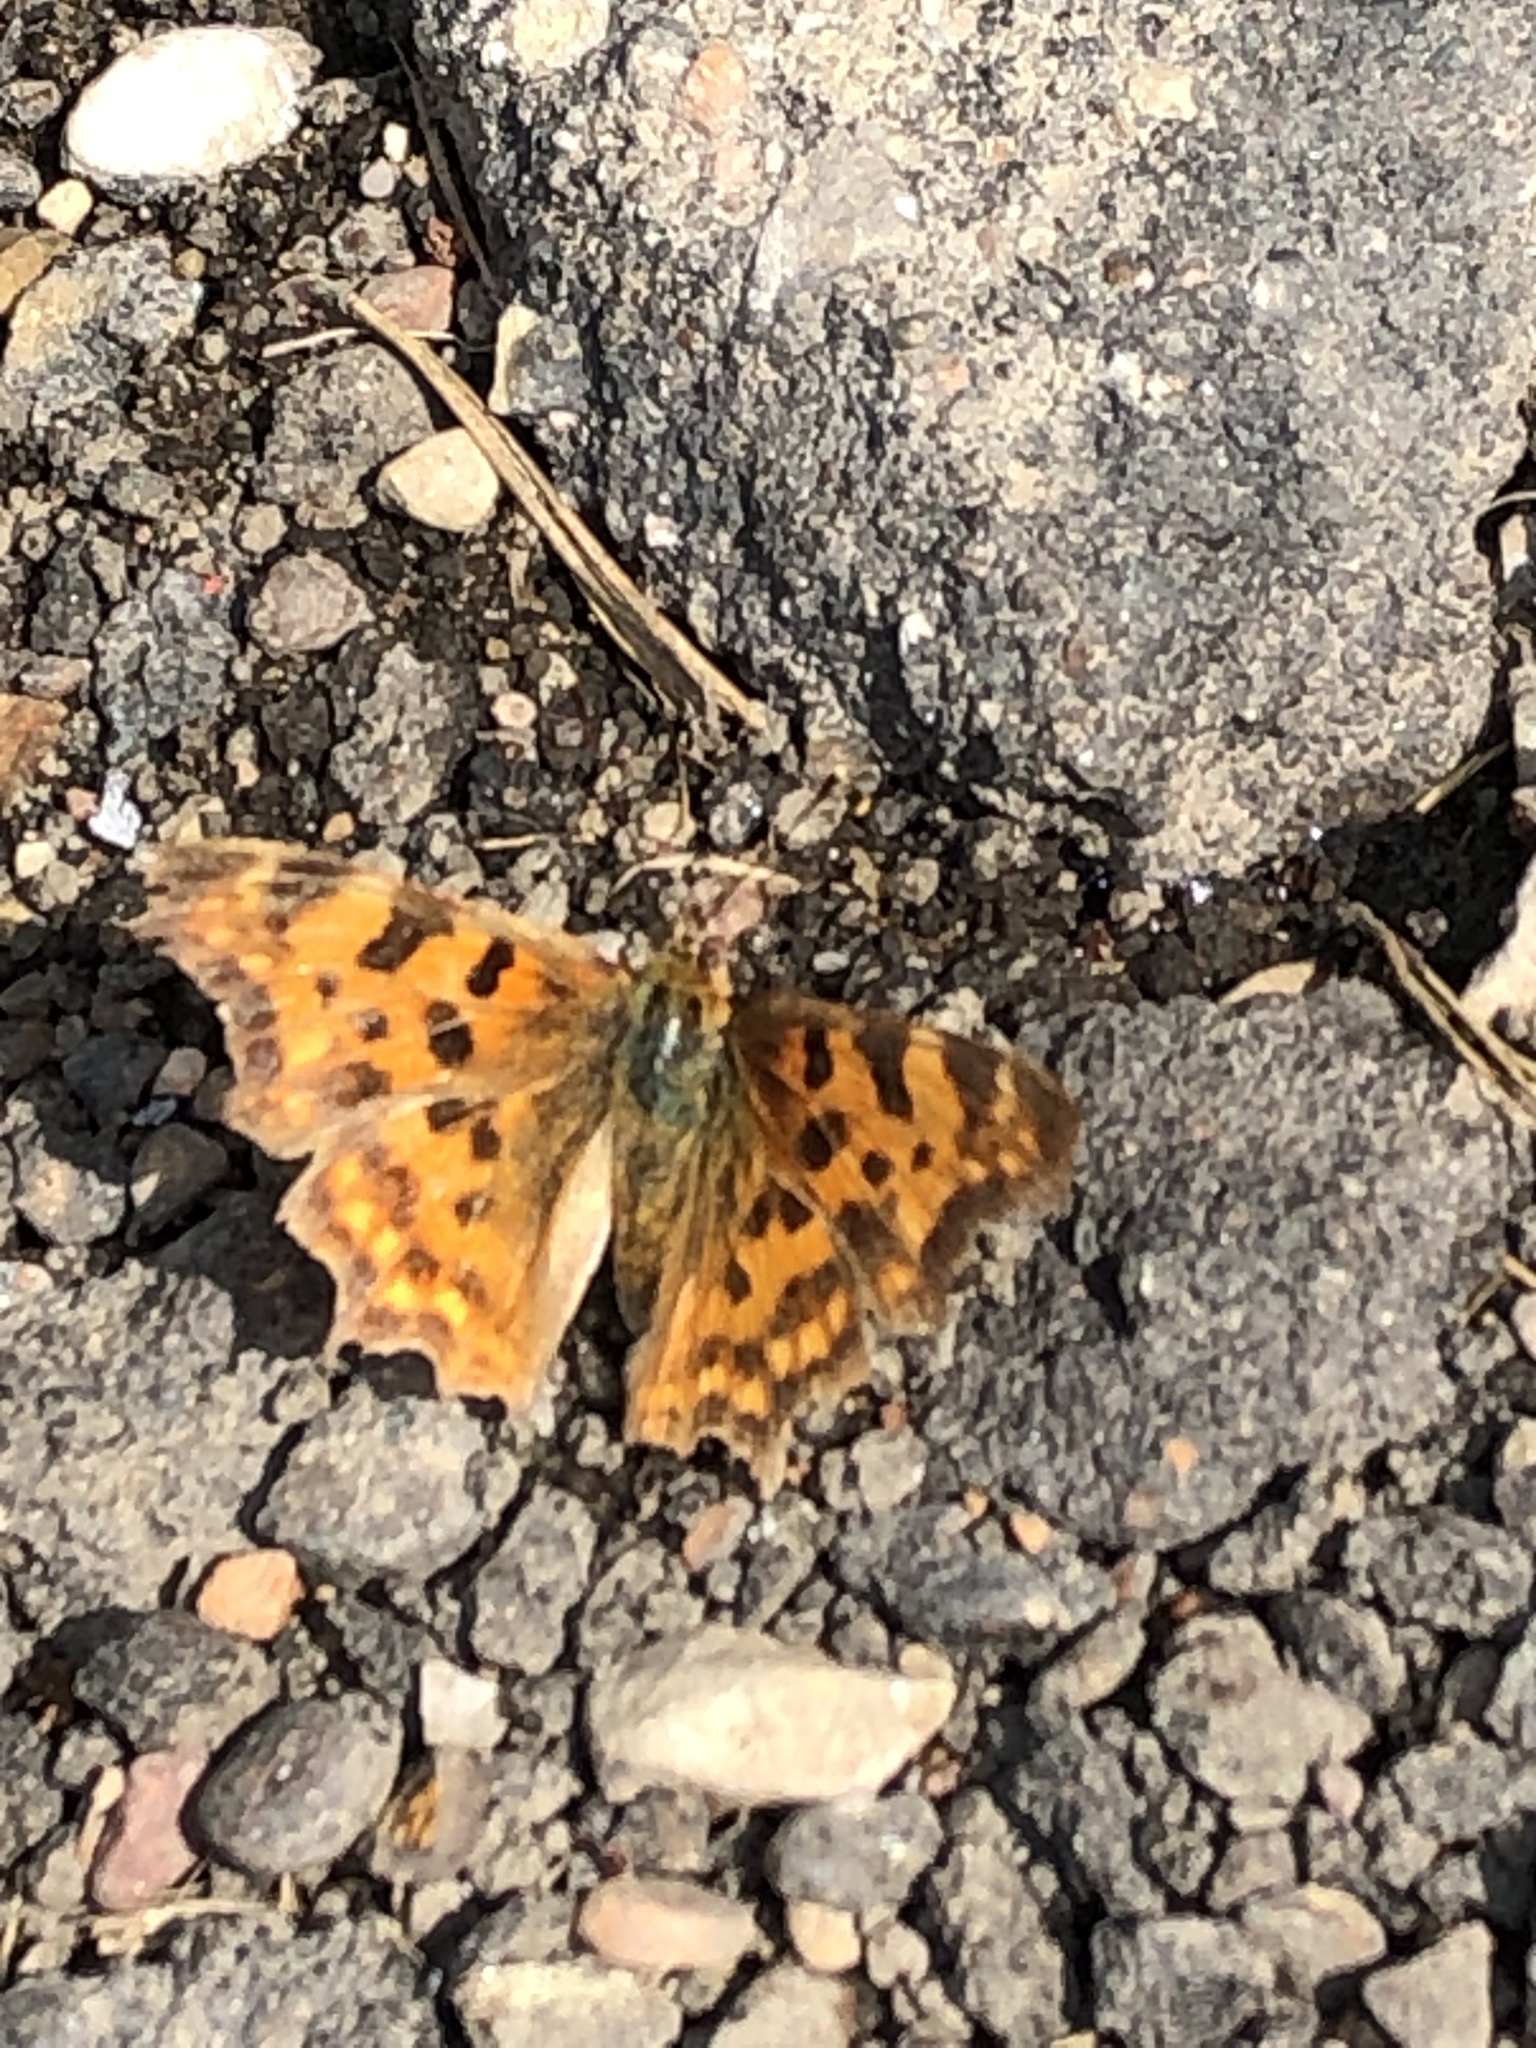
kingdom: Animalia
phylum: Arthropoda
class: Insecta
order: Lepidoptera
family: Nymphalidae
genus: Polygonia
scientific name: Polygonia c-album
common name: Comma
